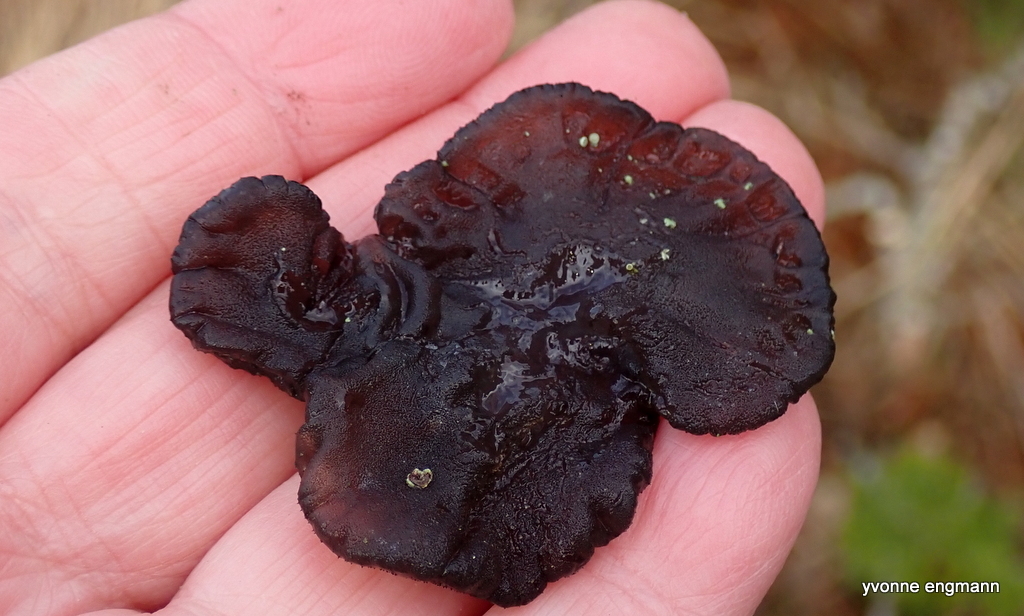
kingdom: Fungi
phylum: Basidiomycota
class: Agaricomycetes
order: Auriculariales
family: Auriculariaceae
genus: Exidia
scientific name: Exidia glandulosa
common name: Witches' butter
